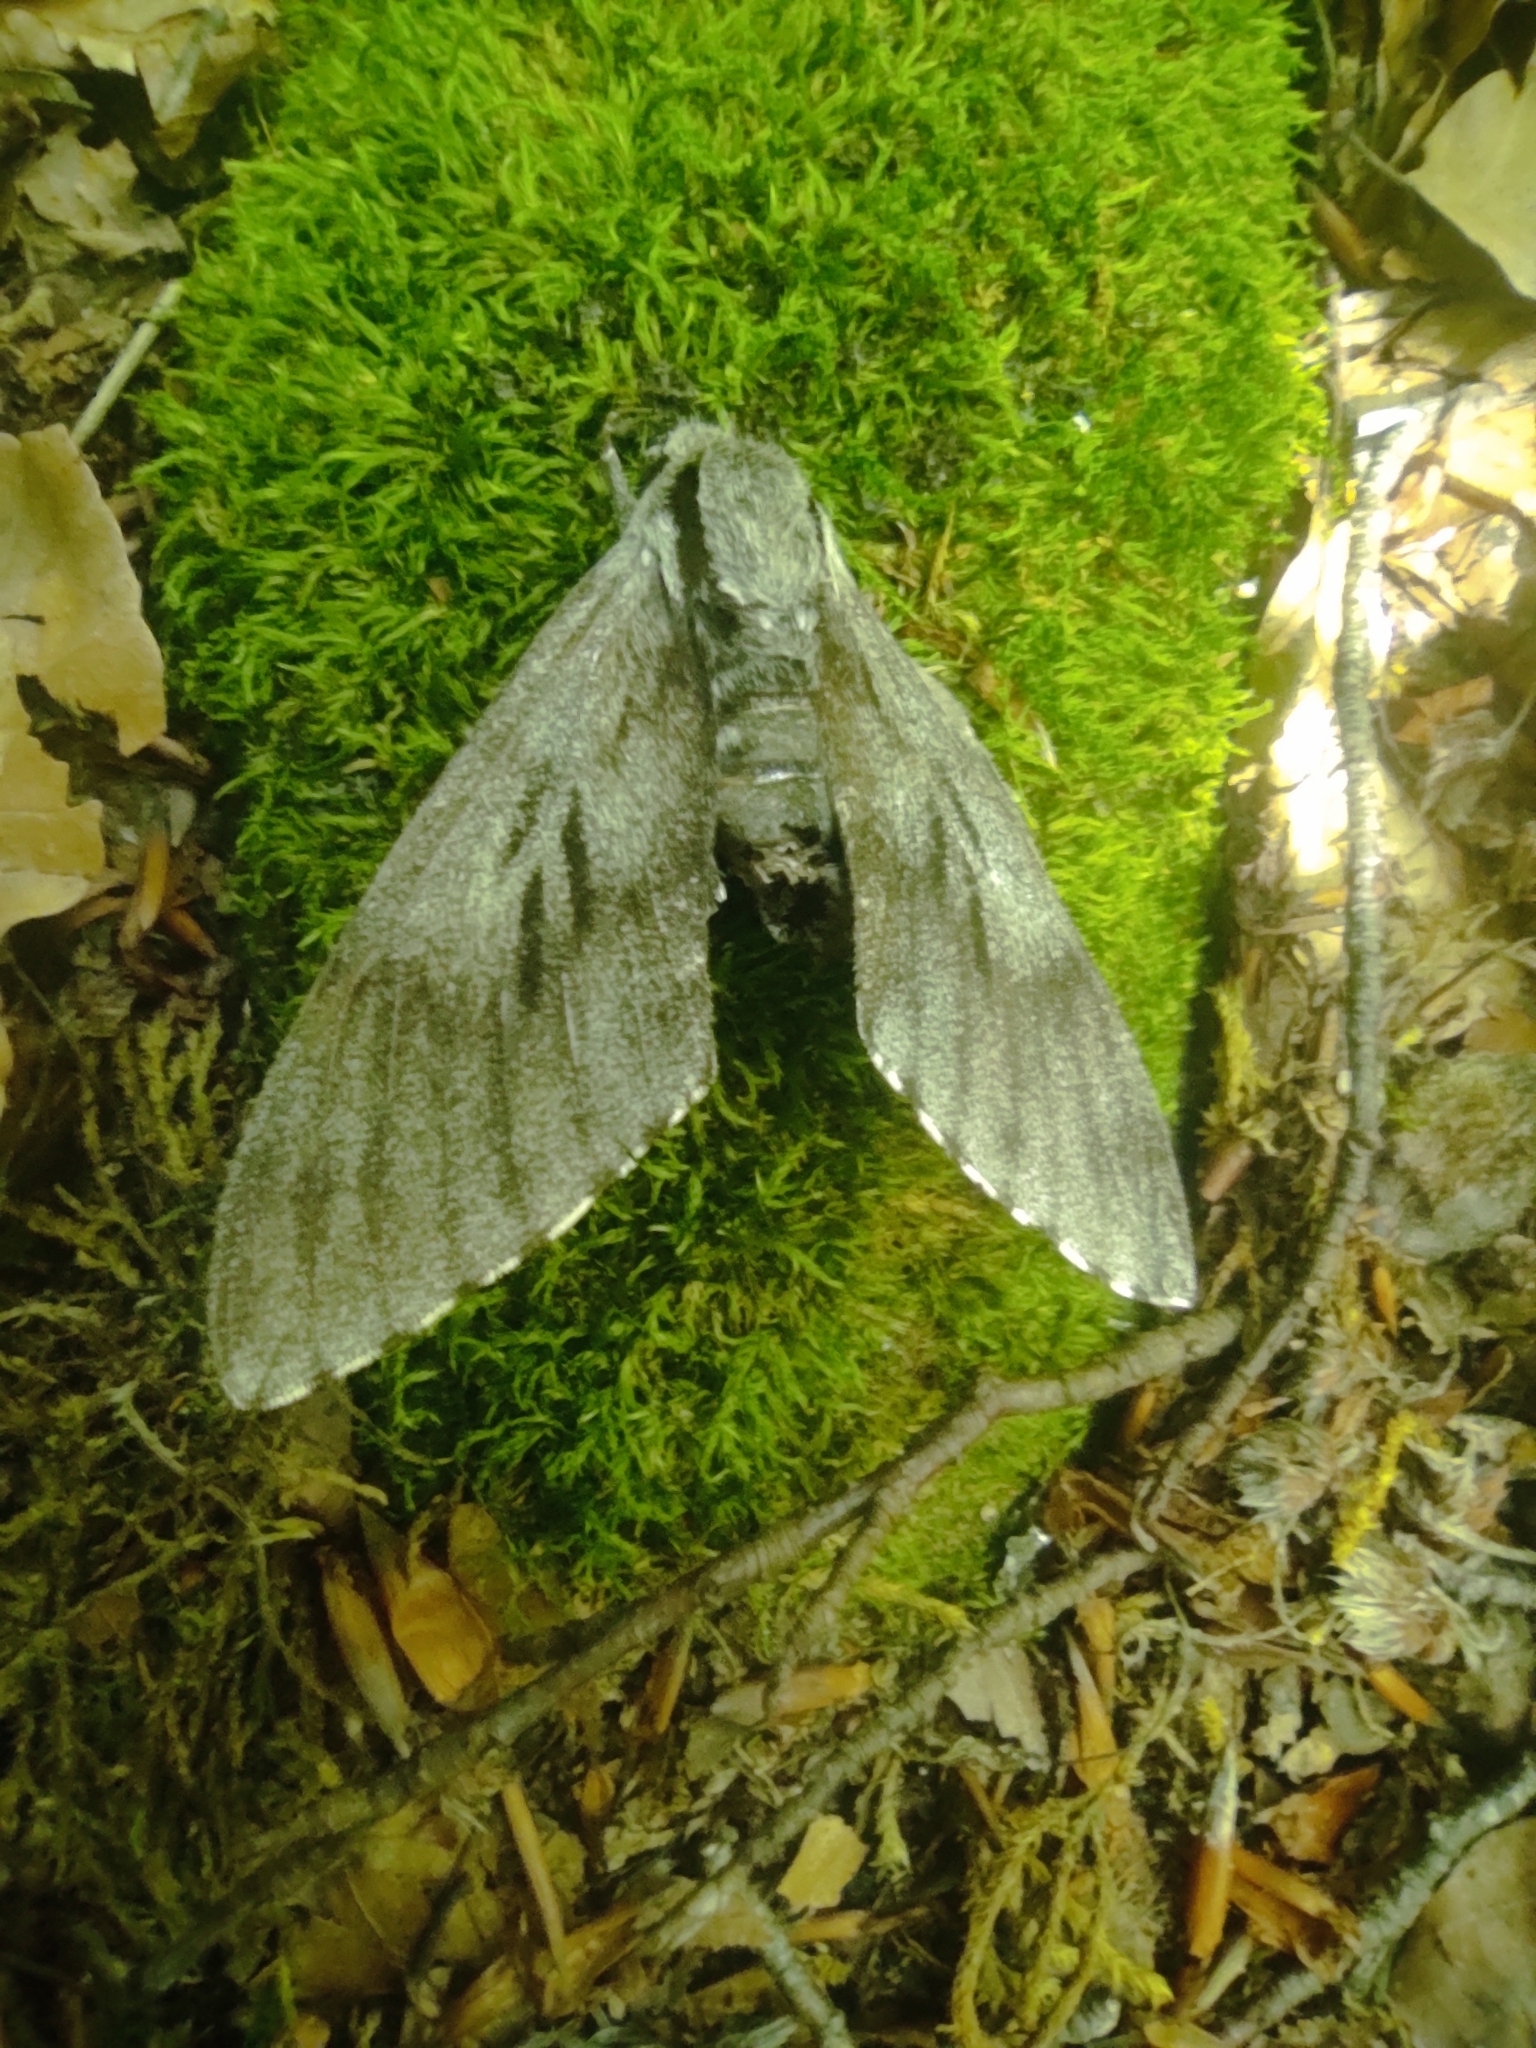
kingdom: Animalia
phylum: Arthropoda
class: Insecta
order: Lepidoptera
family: Sphingidae
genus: Sphinx
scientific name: Sphinx maurorum
